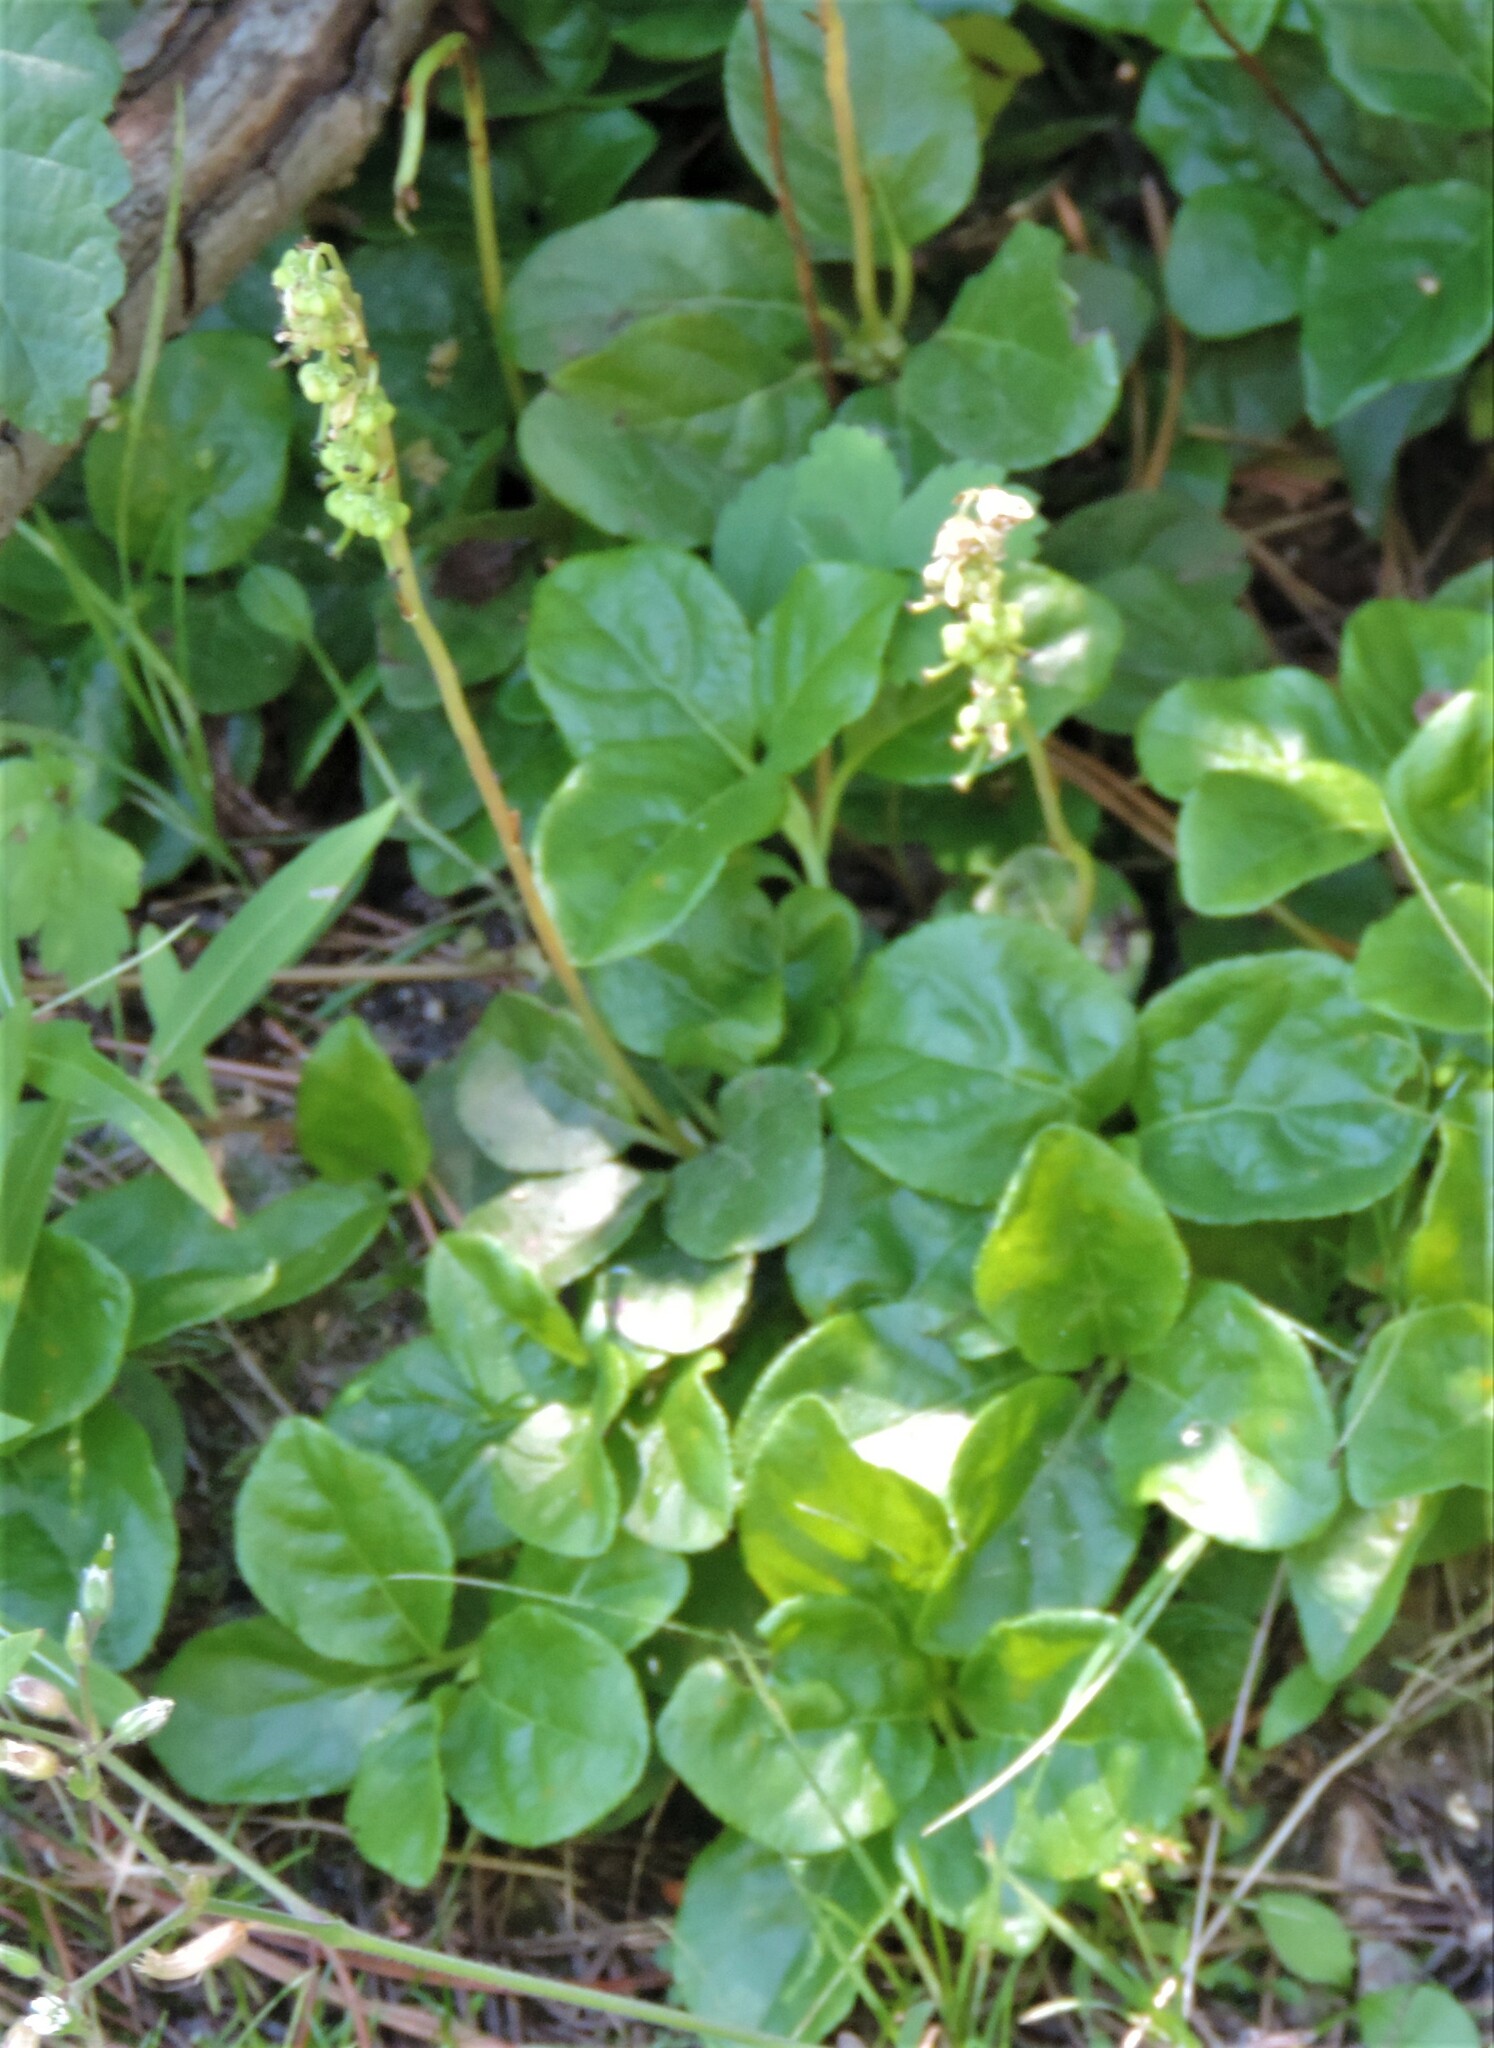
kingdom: Plantae
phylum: Tracheophyta
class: Magnoliopsida
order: Ericales
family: Ericaceae
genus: Orthilia
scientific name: Orthilia secunda
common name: One-sided orthilia
